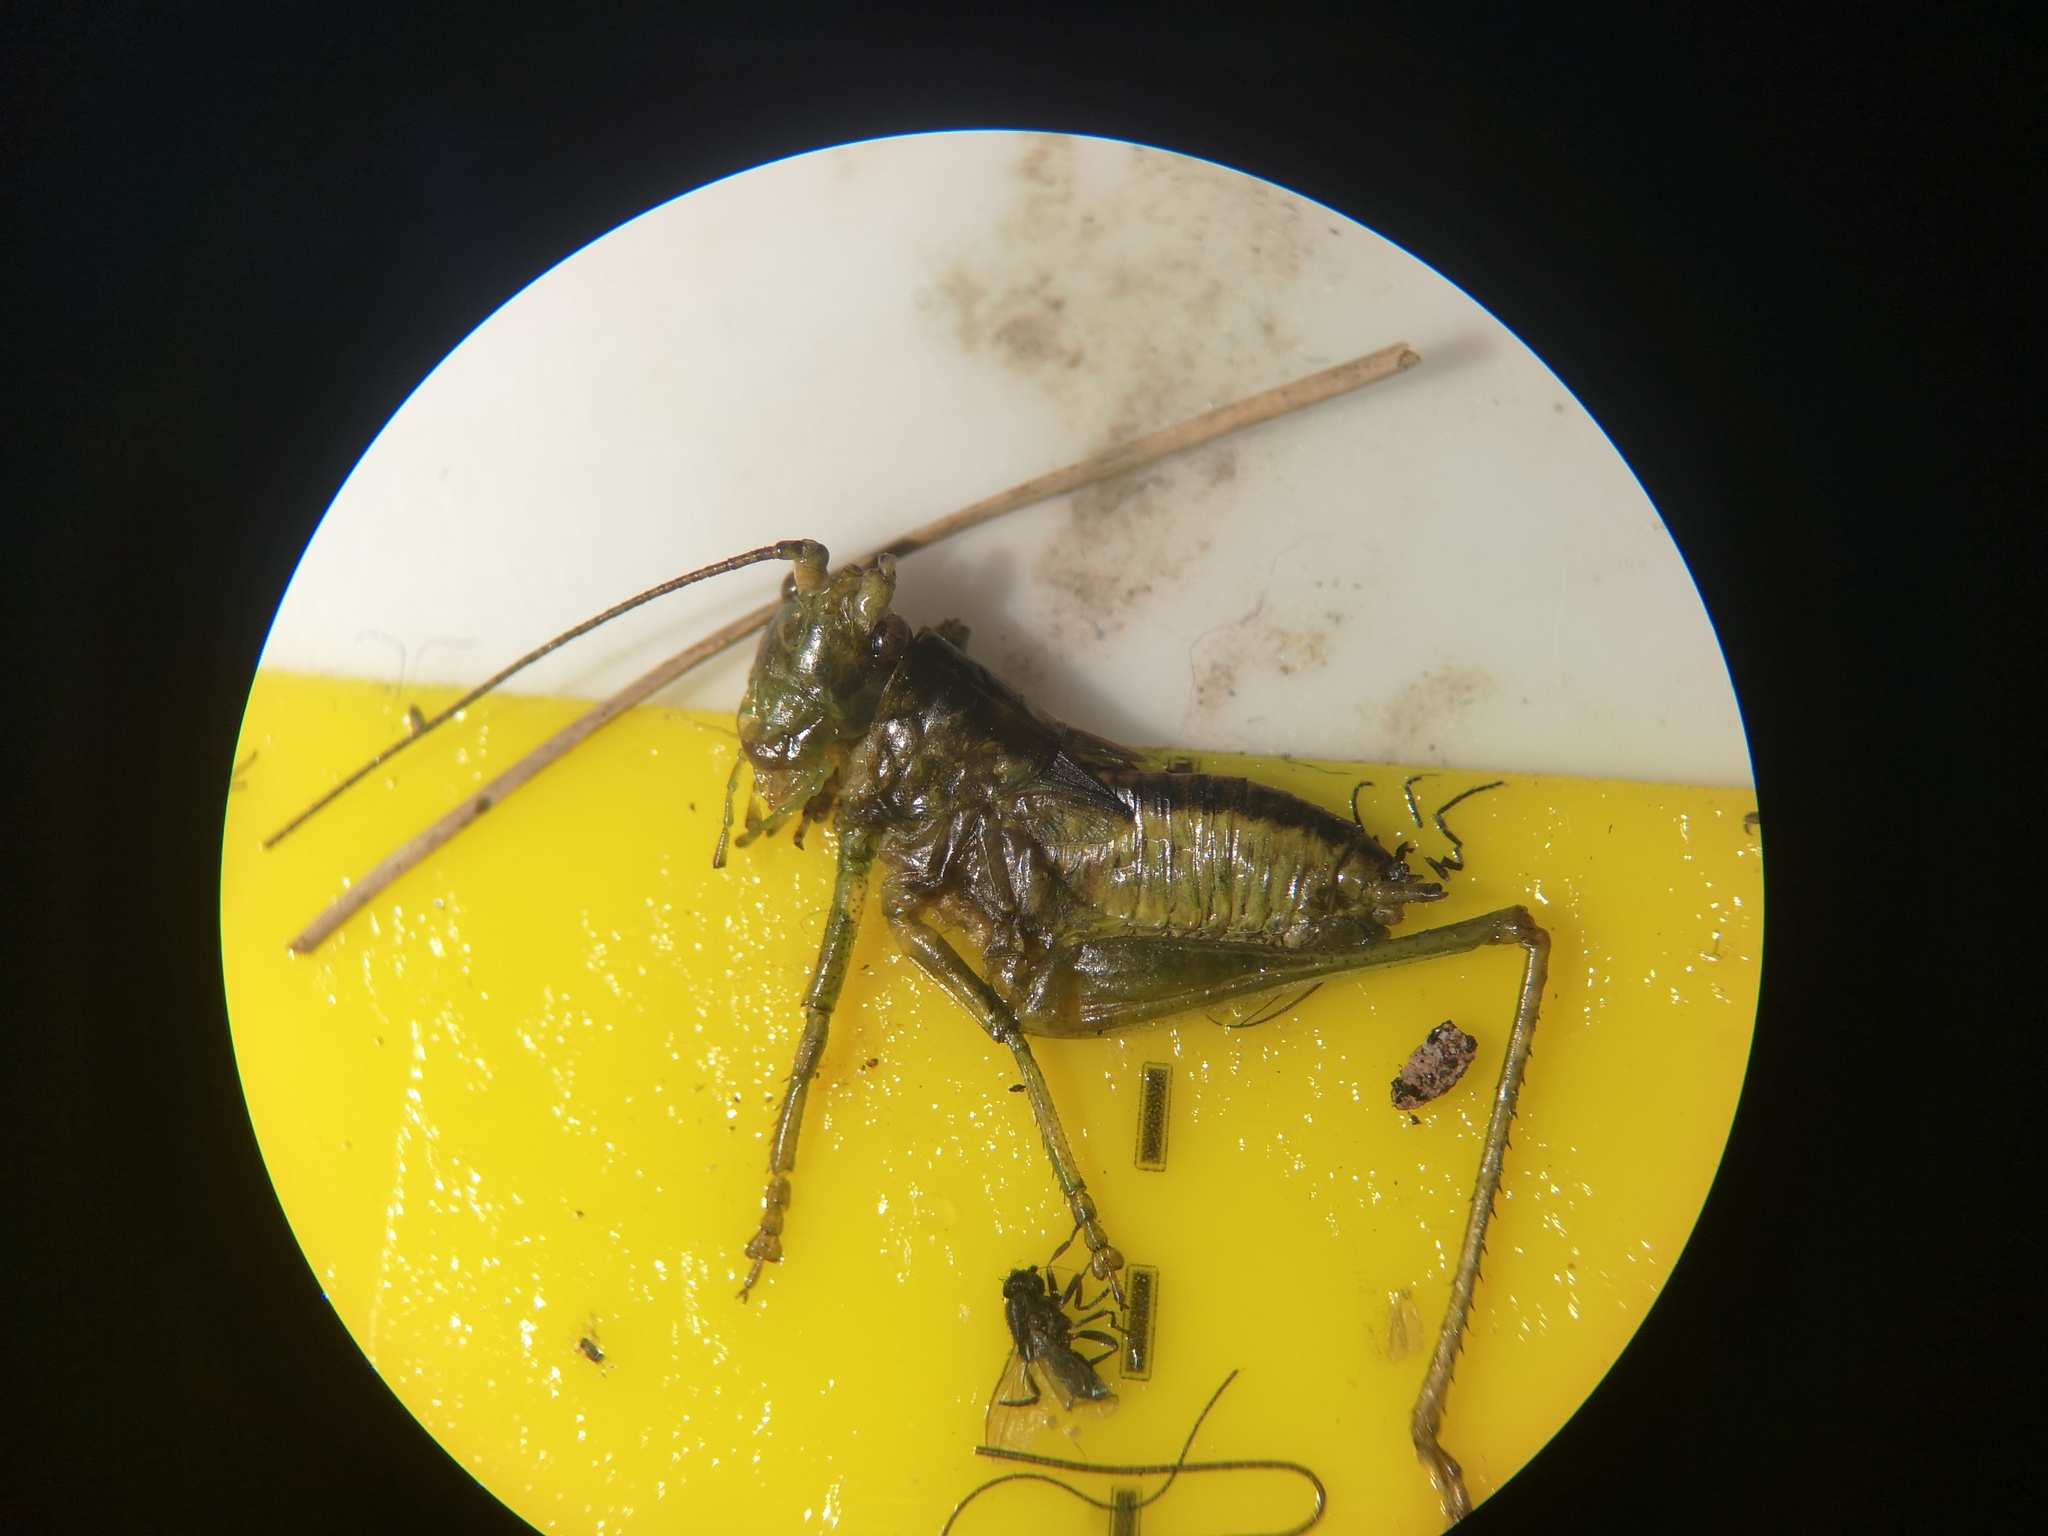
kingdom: Animalia
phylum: Arthropoda
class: Insecta
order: Orthoptera
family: Tettigoniidae
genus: Tettigonia
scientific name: Tettigonia viridissima
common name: Great green bush-cricket
